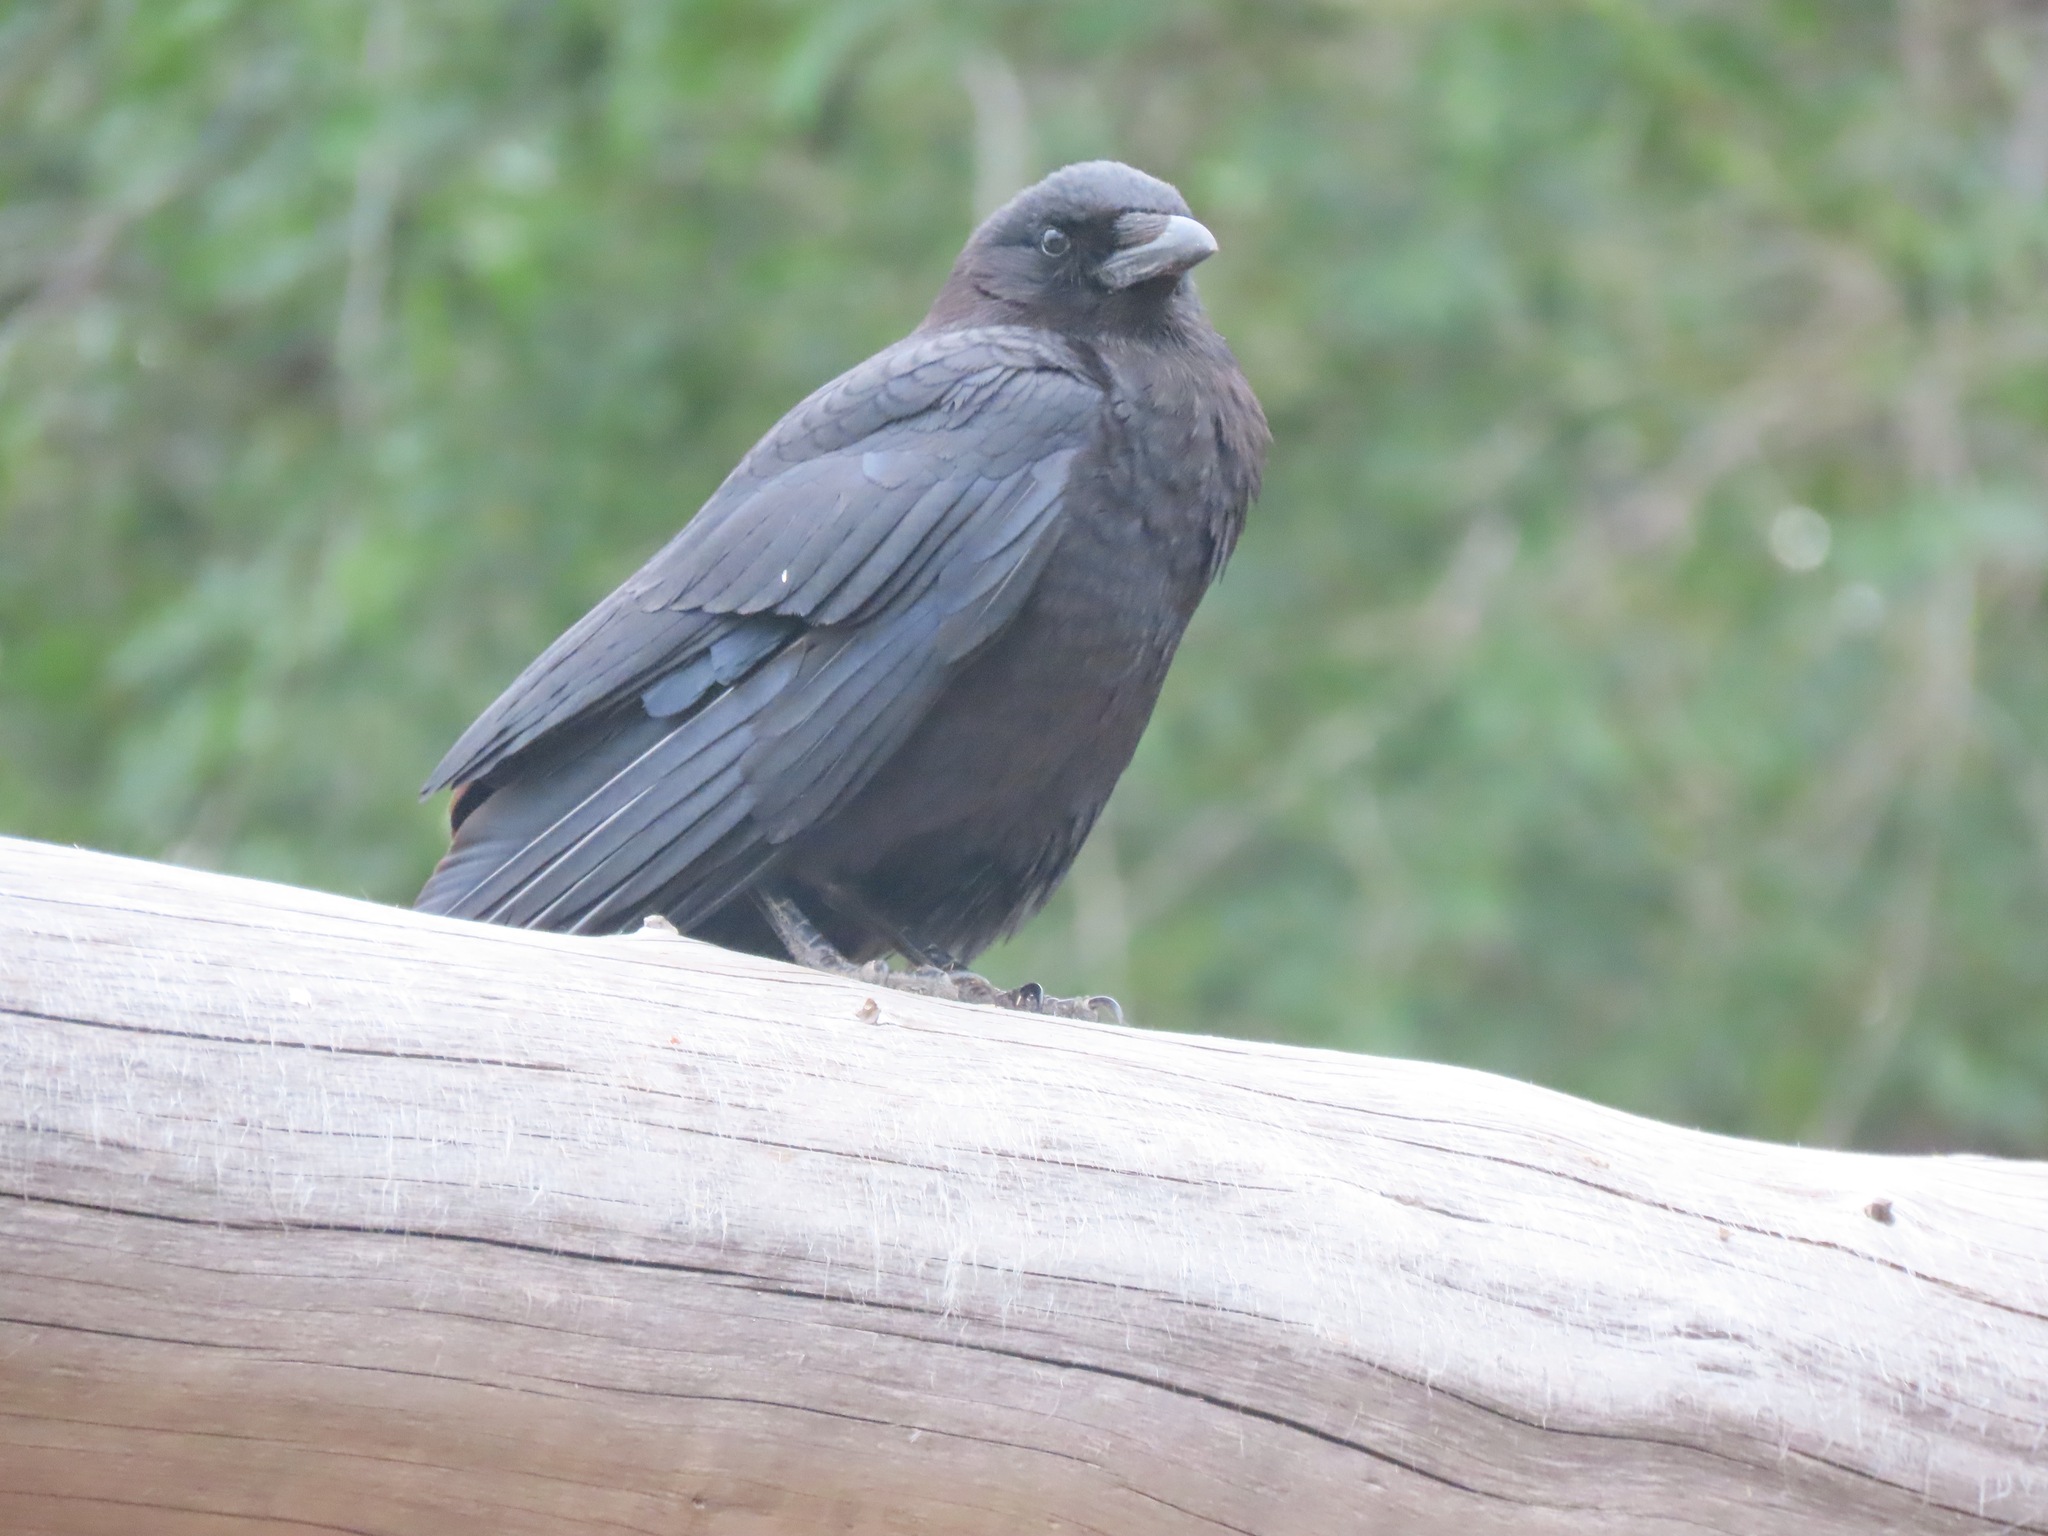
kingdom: Animalia
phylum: Chordata
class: Aves
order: Passeriformes
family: Corvidae
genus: Corvus
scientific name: Corvus brachyrhynchos
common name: American crow
